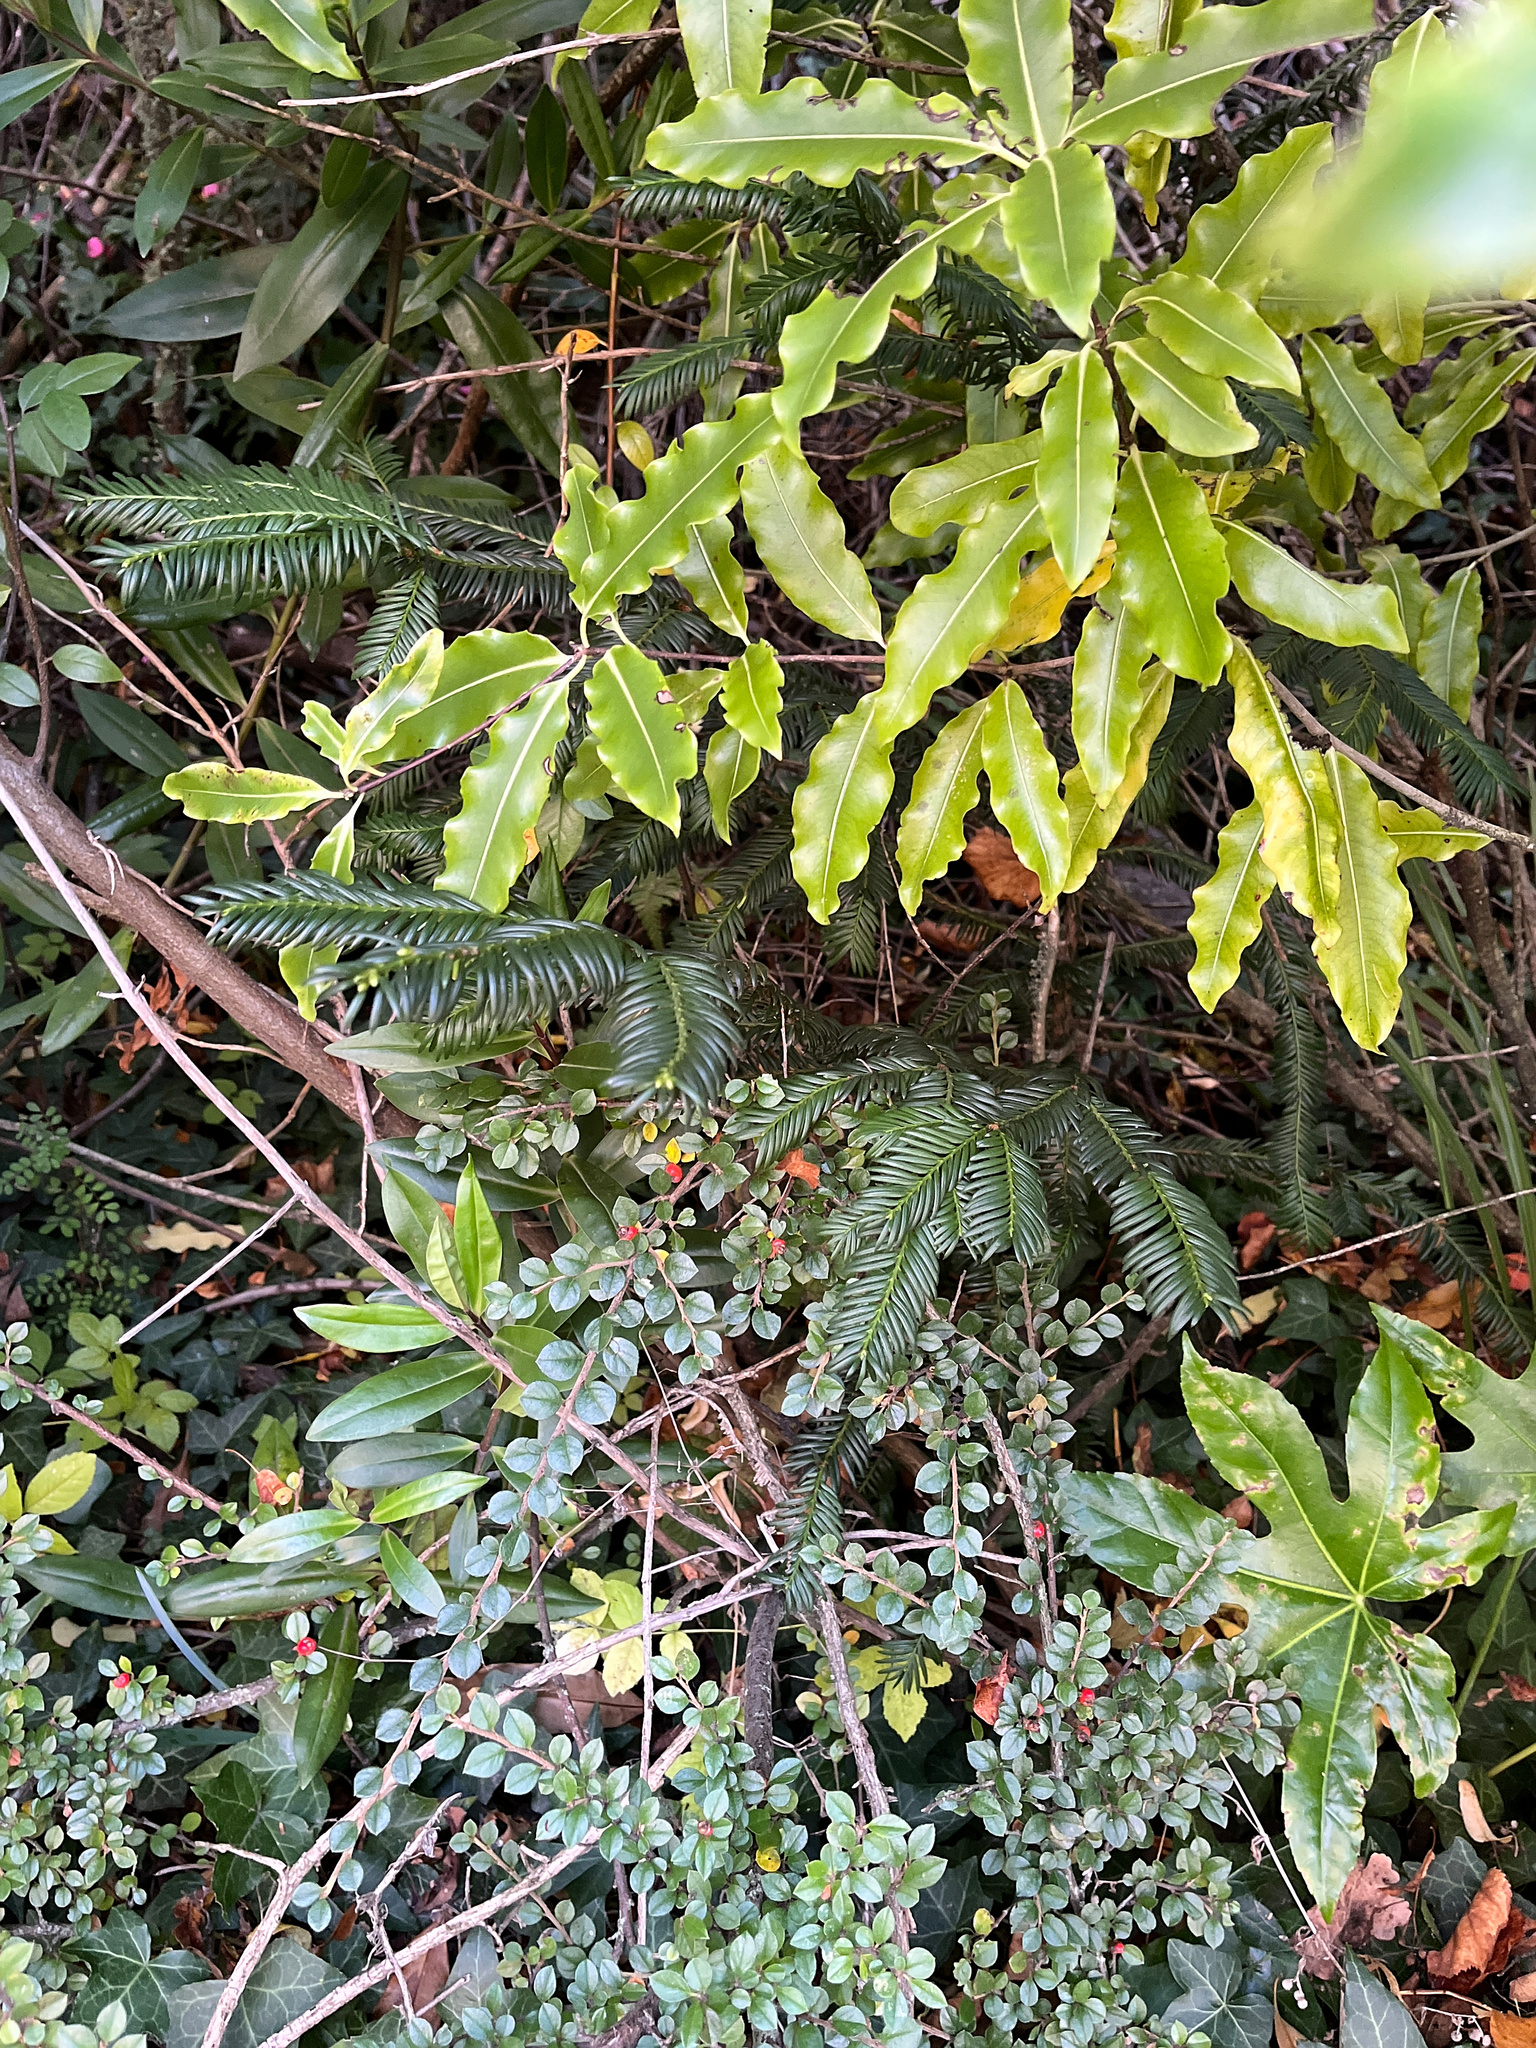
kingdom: Plantae
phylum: Tracheophyta
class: Pinopsida
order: Pinales
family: Taxaceae
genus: Taxus
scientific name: Taxus baccata
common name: Yew
